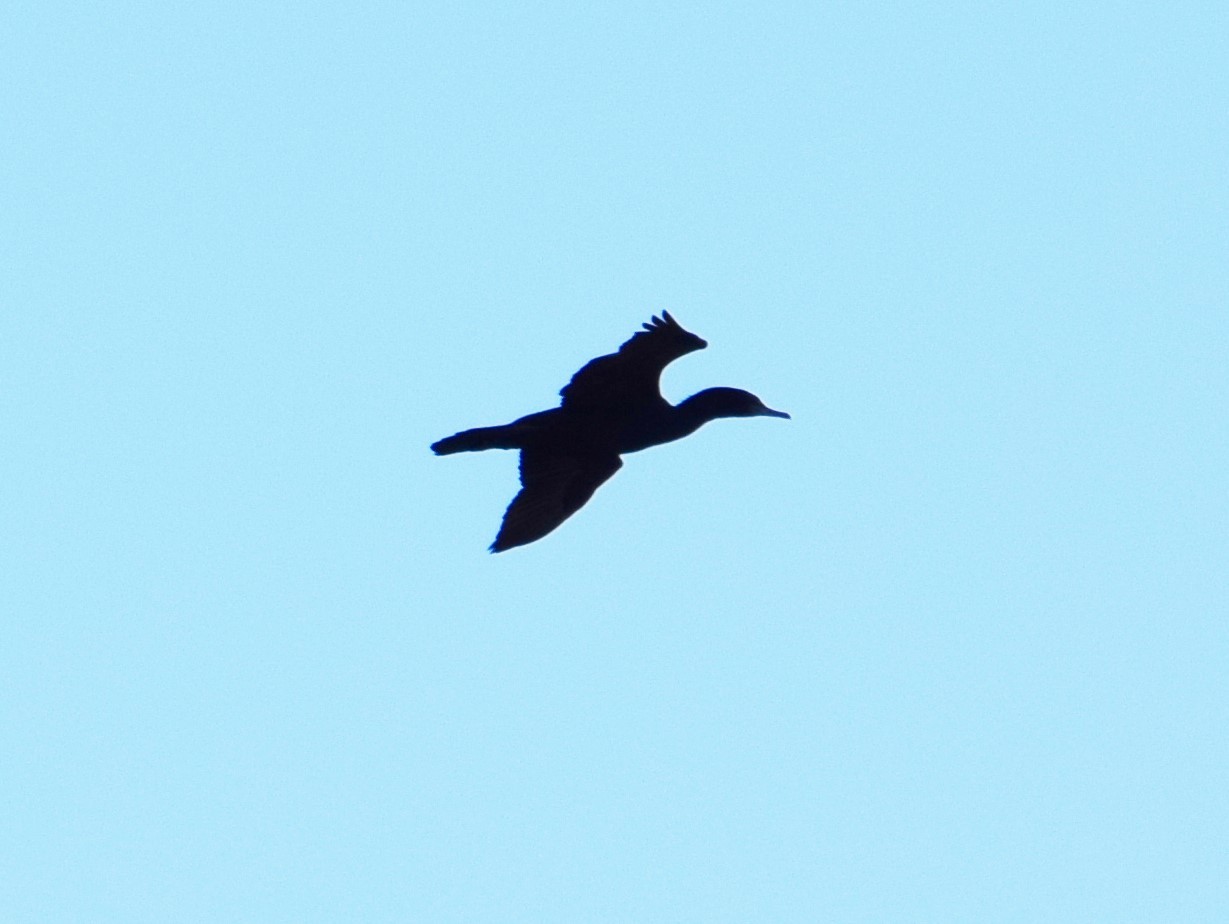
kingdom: Animalia
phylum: Chordata
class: Aves
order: Suliformes
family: Phalacrocoracidae
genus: Phalacrocorax
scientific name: Phalacrocorax sulcirostris
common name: Little black cormorant
